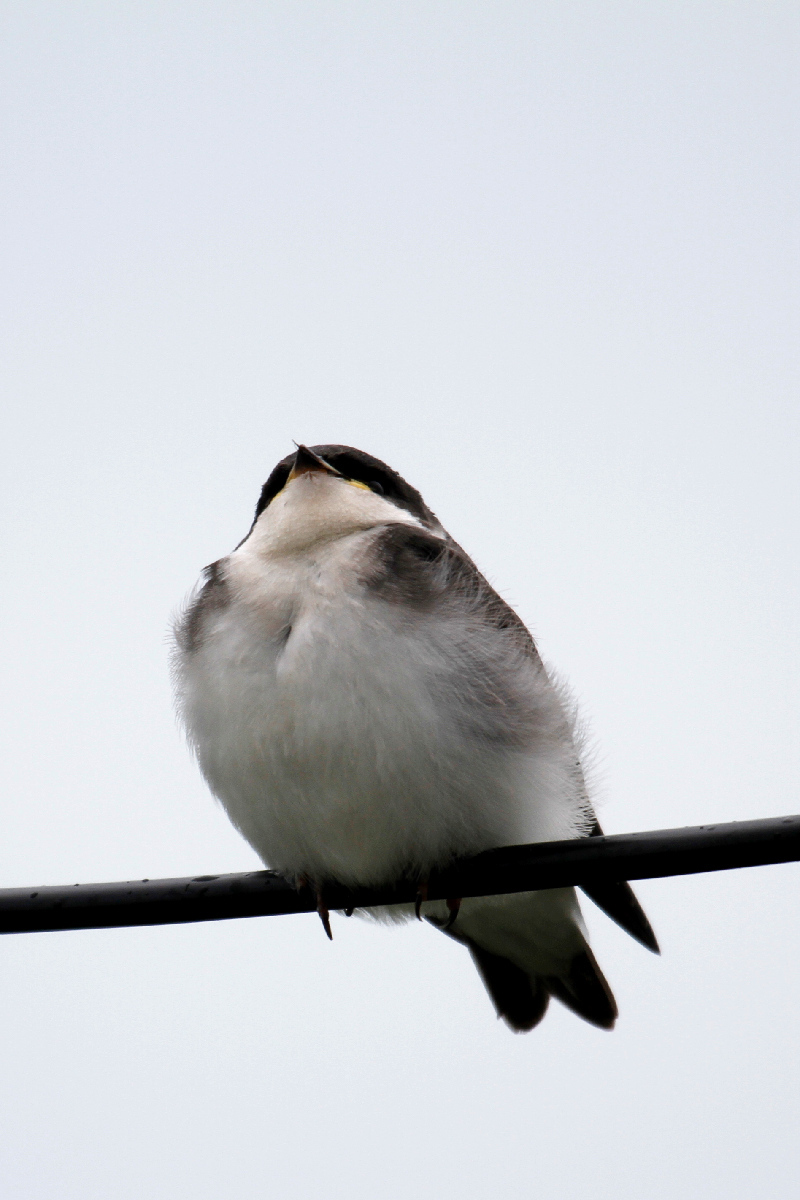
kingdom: Animalia
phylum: Chordata
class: Aves
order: Passeriformes
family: Hirundinidae
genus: Tachycineta
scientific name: Tachycineta bicolor
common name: Tree swallow
